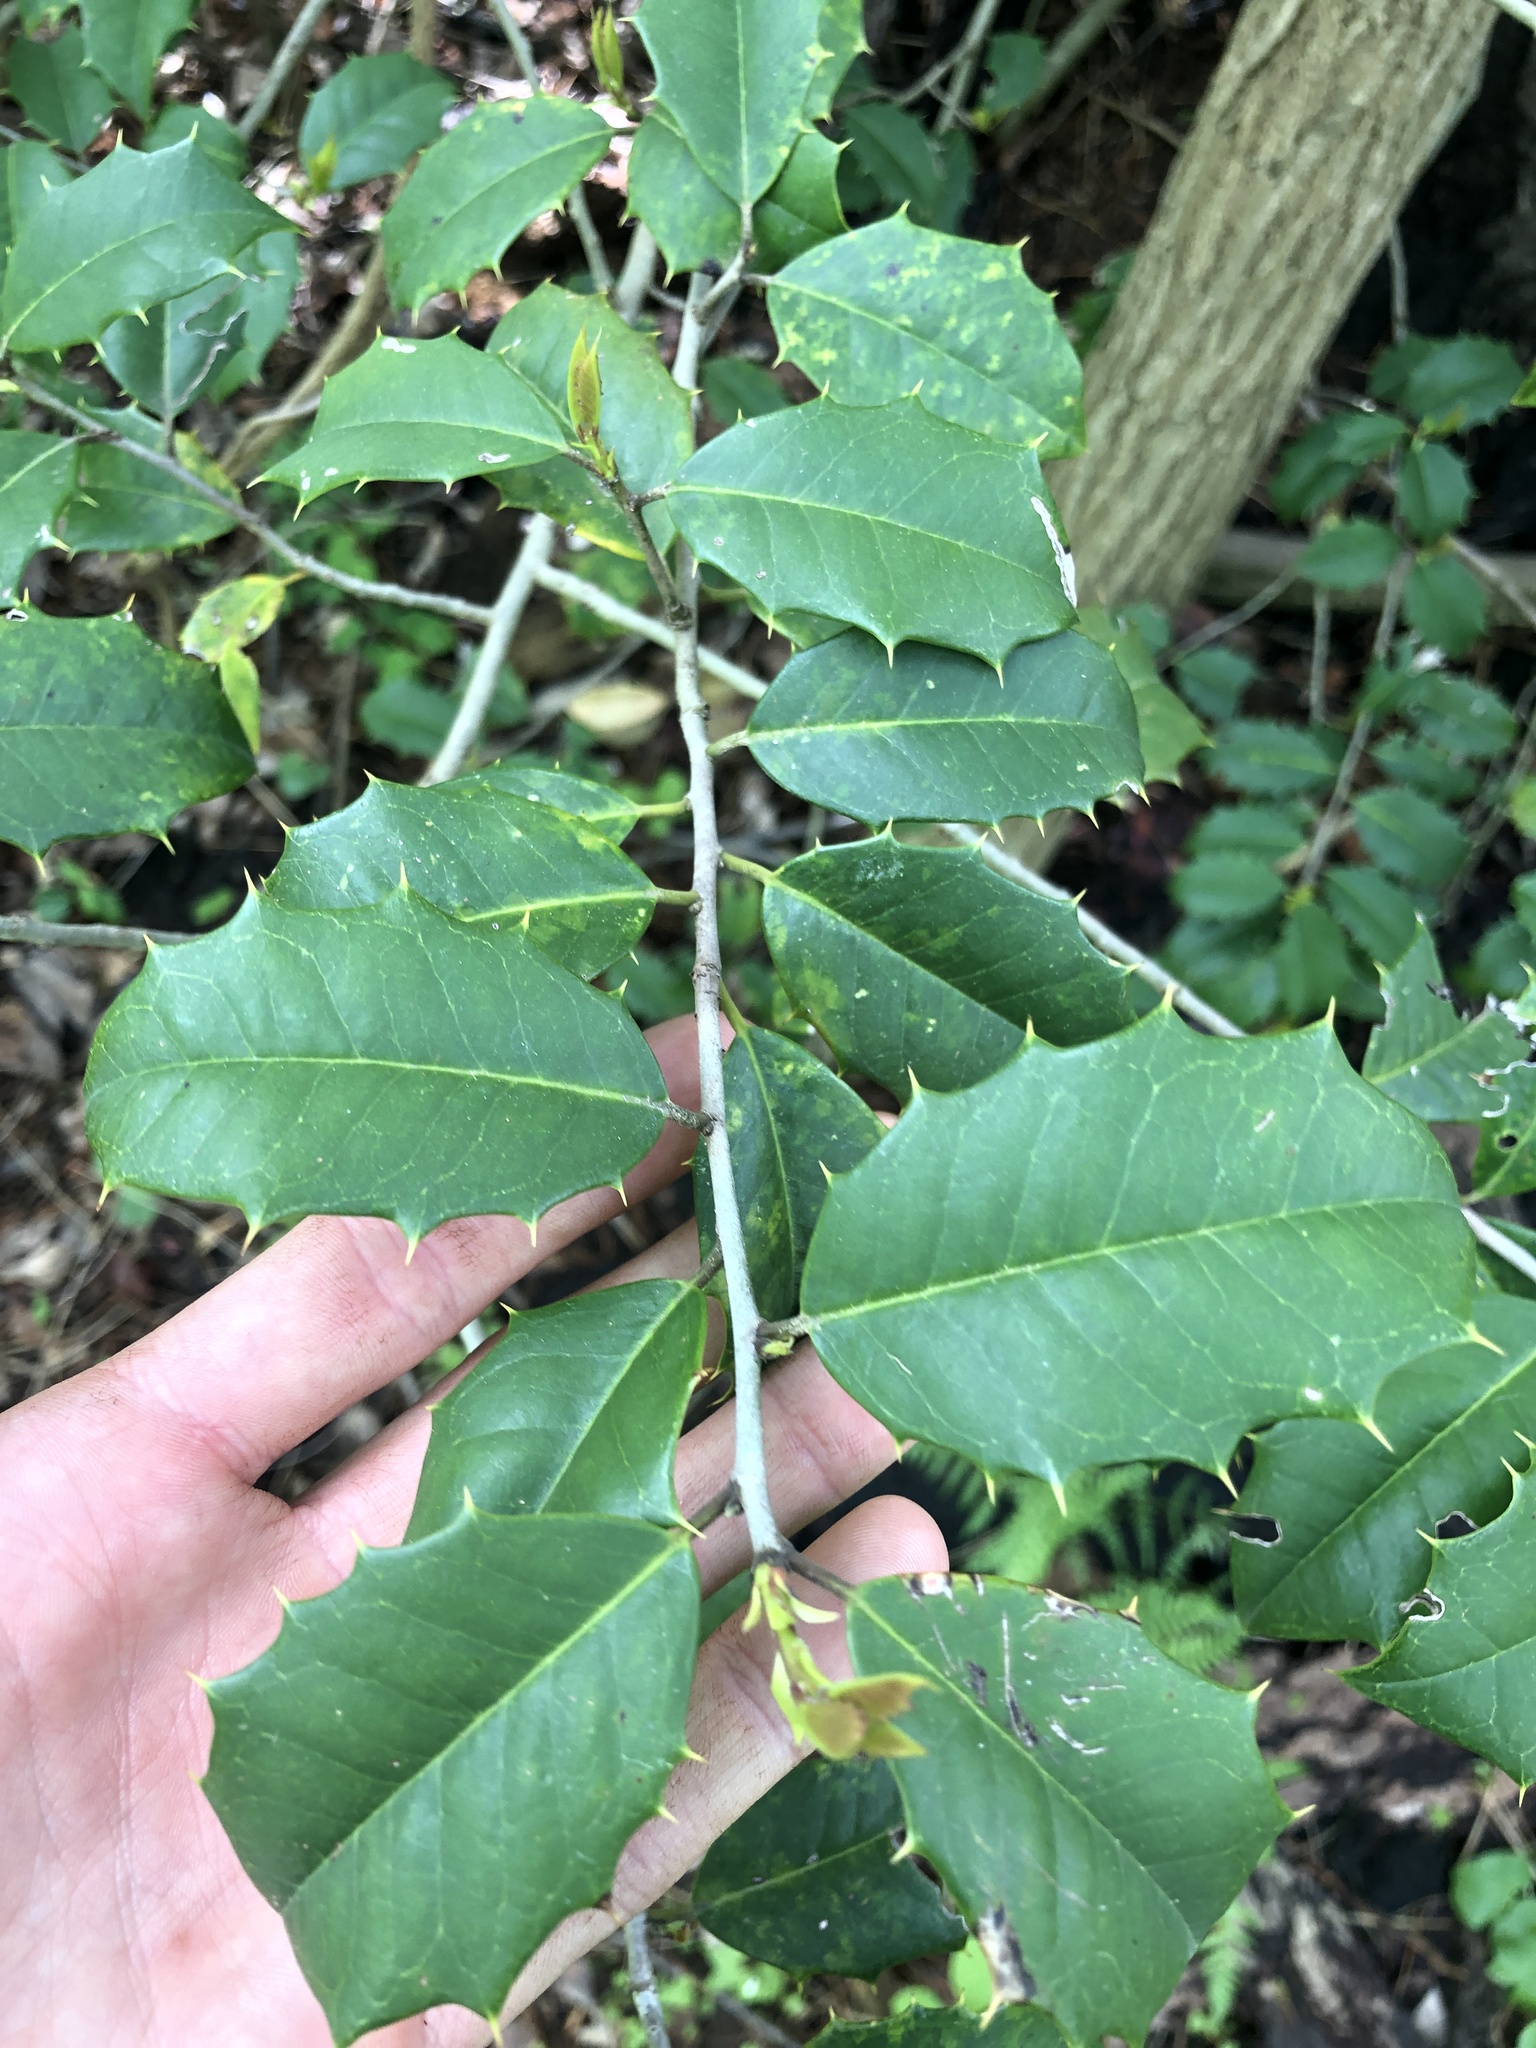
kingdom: Plantae
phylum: Tracheophyta
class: Magnoliopsida
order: Aquifoliales
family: Aquifoliaceae
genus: Ilex
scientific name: Ilex opaca
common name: American holly
